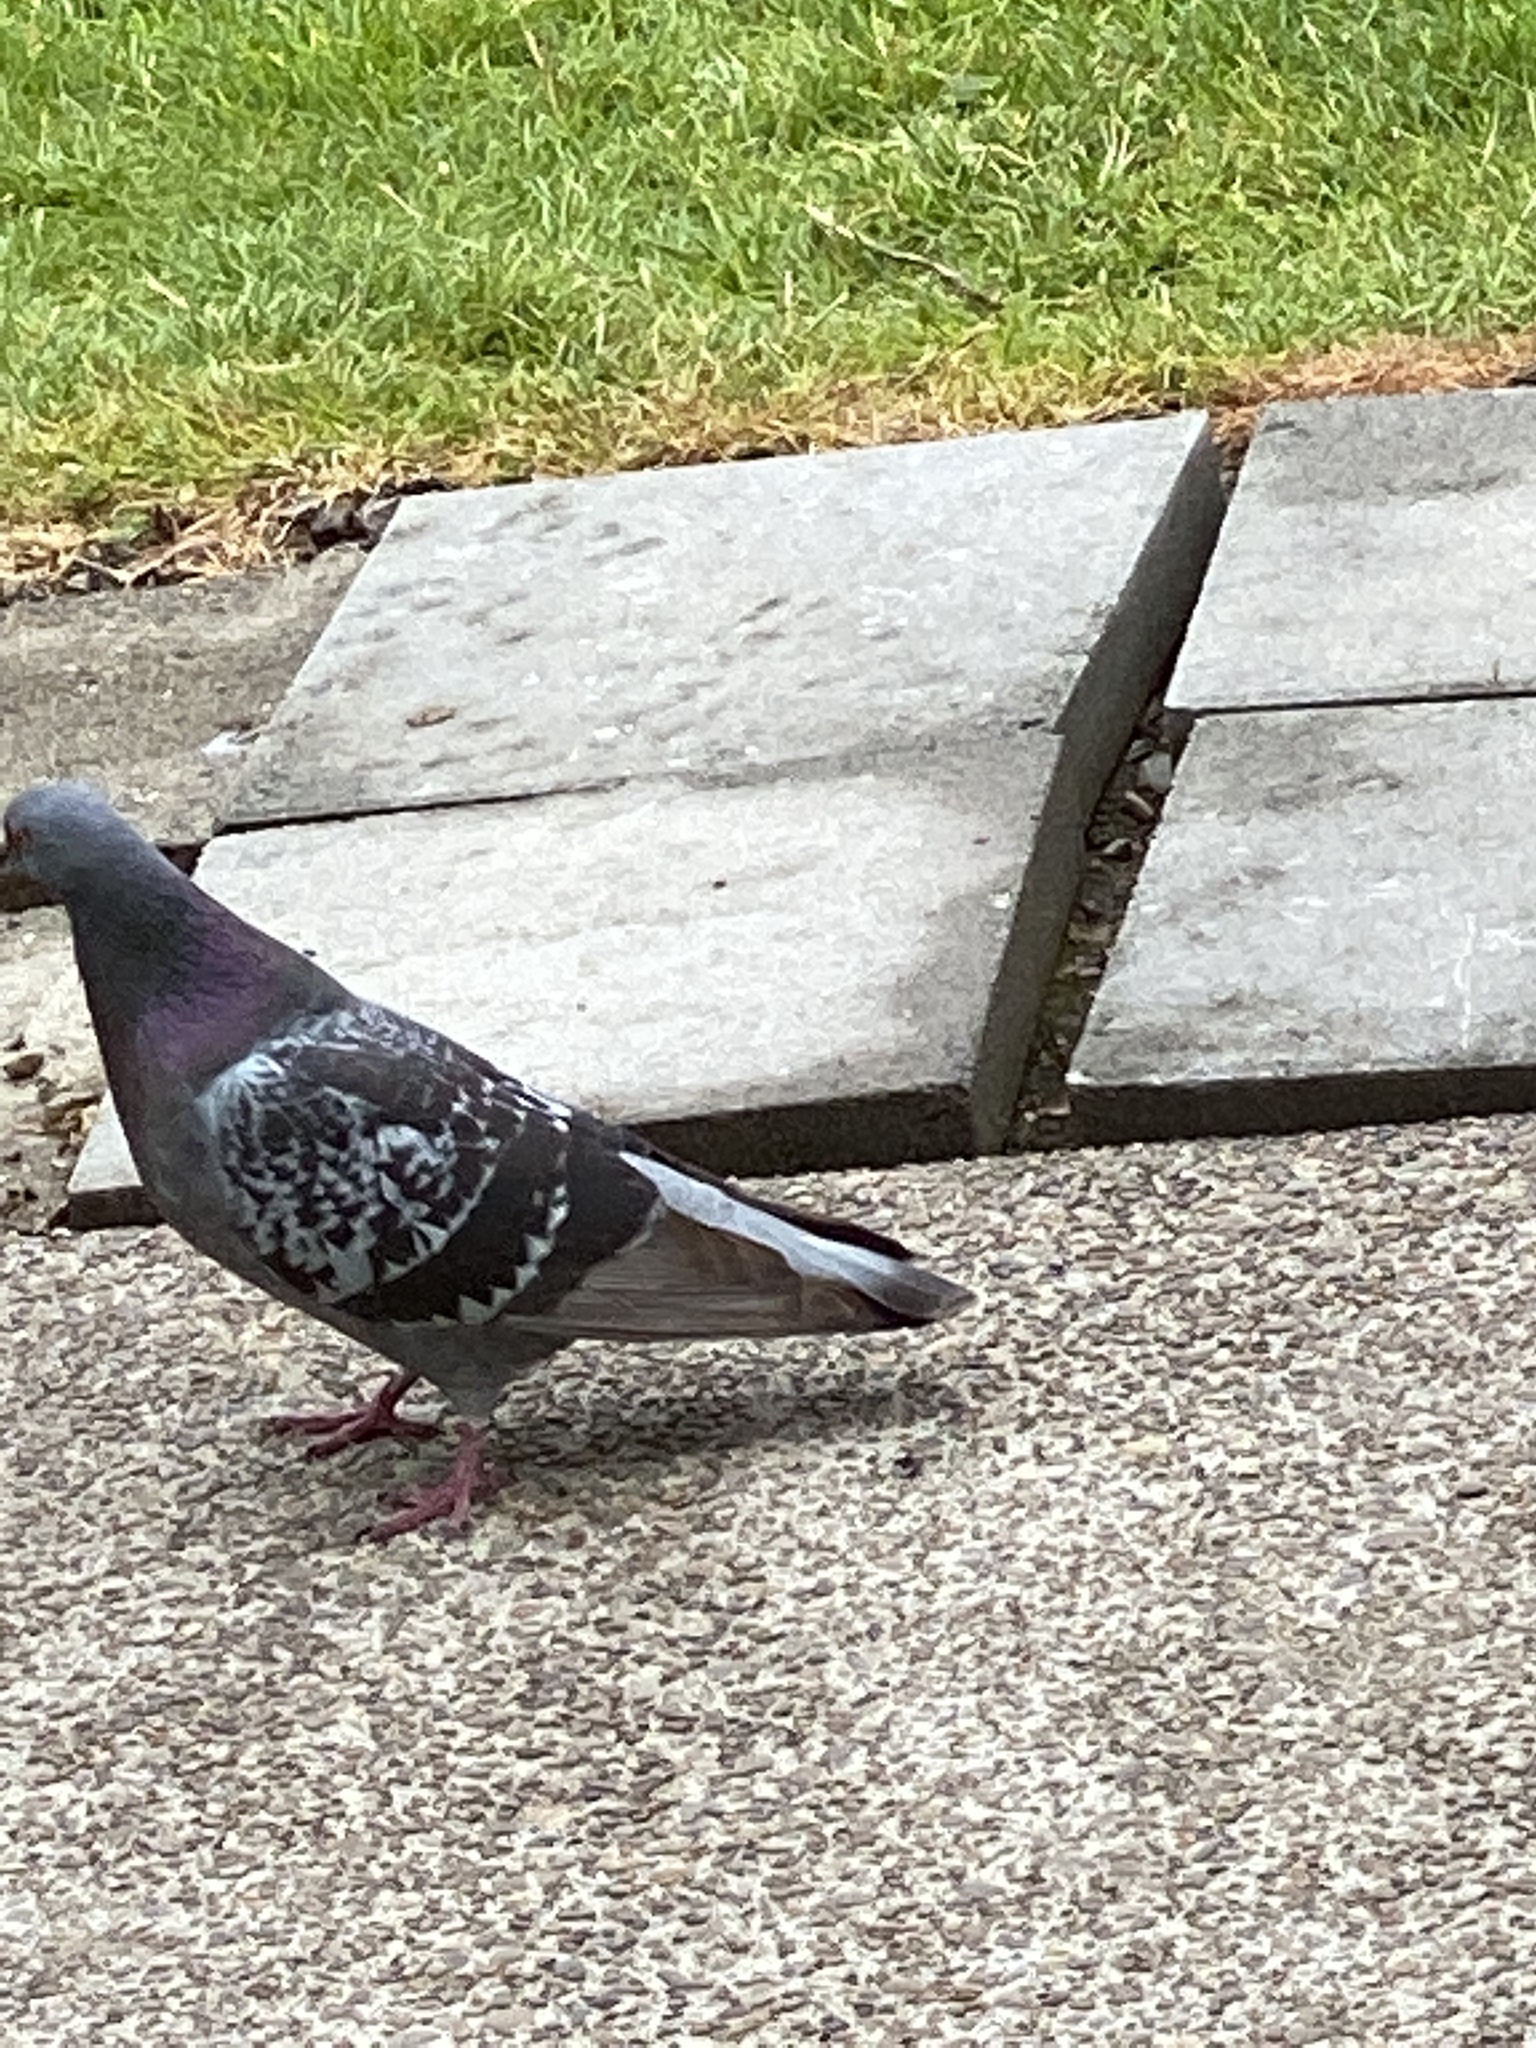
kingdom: Animalia
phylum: Chordata
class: Aves
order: Columbiformes
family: Columbidae
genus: Columba
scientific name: Columba livia
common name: Rock pigeon
